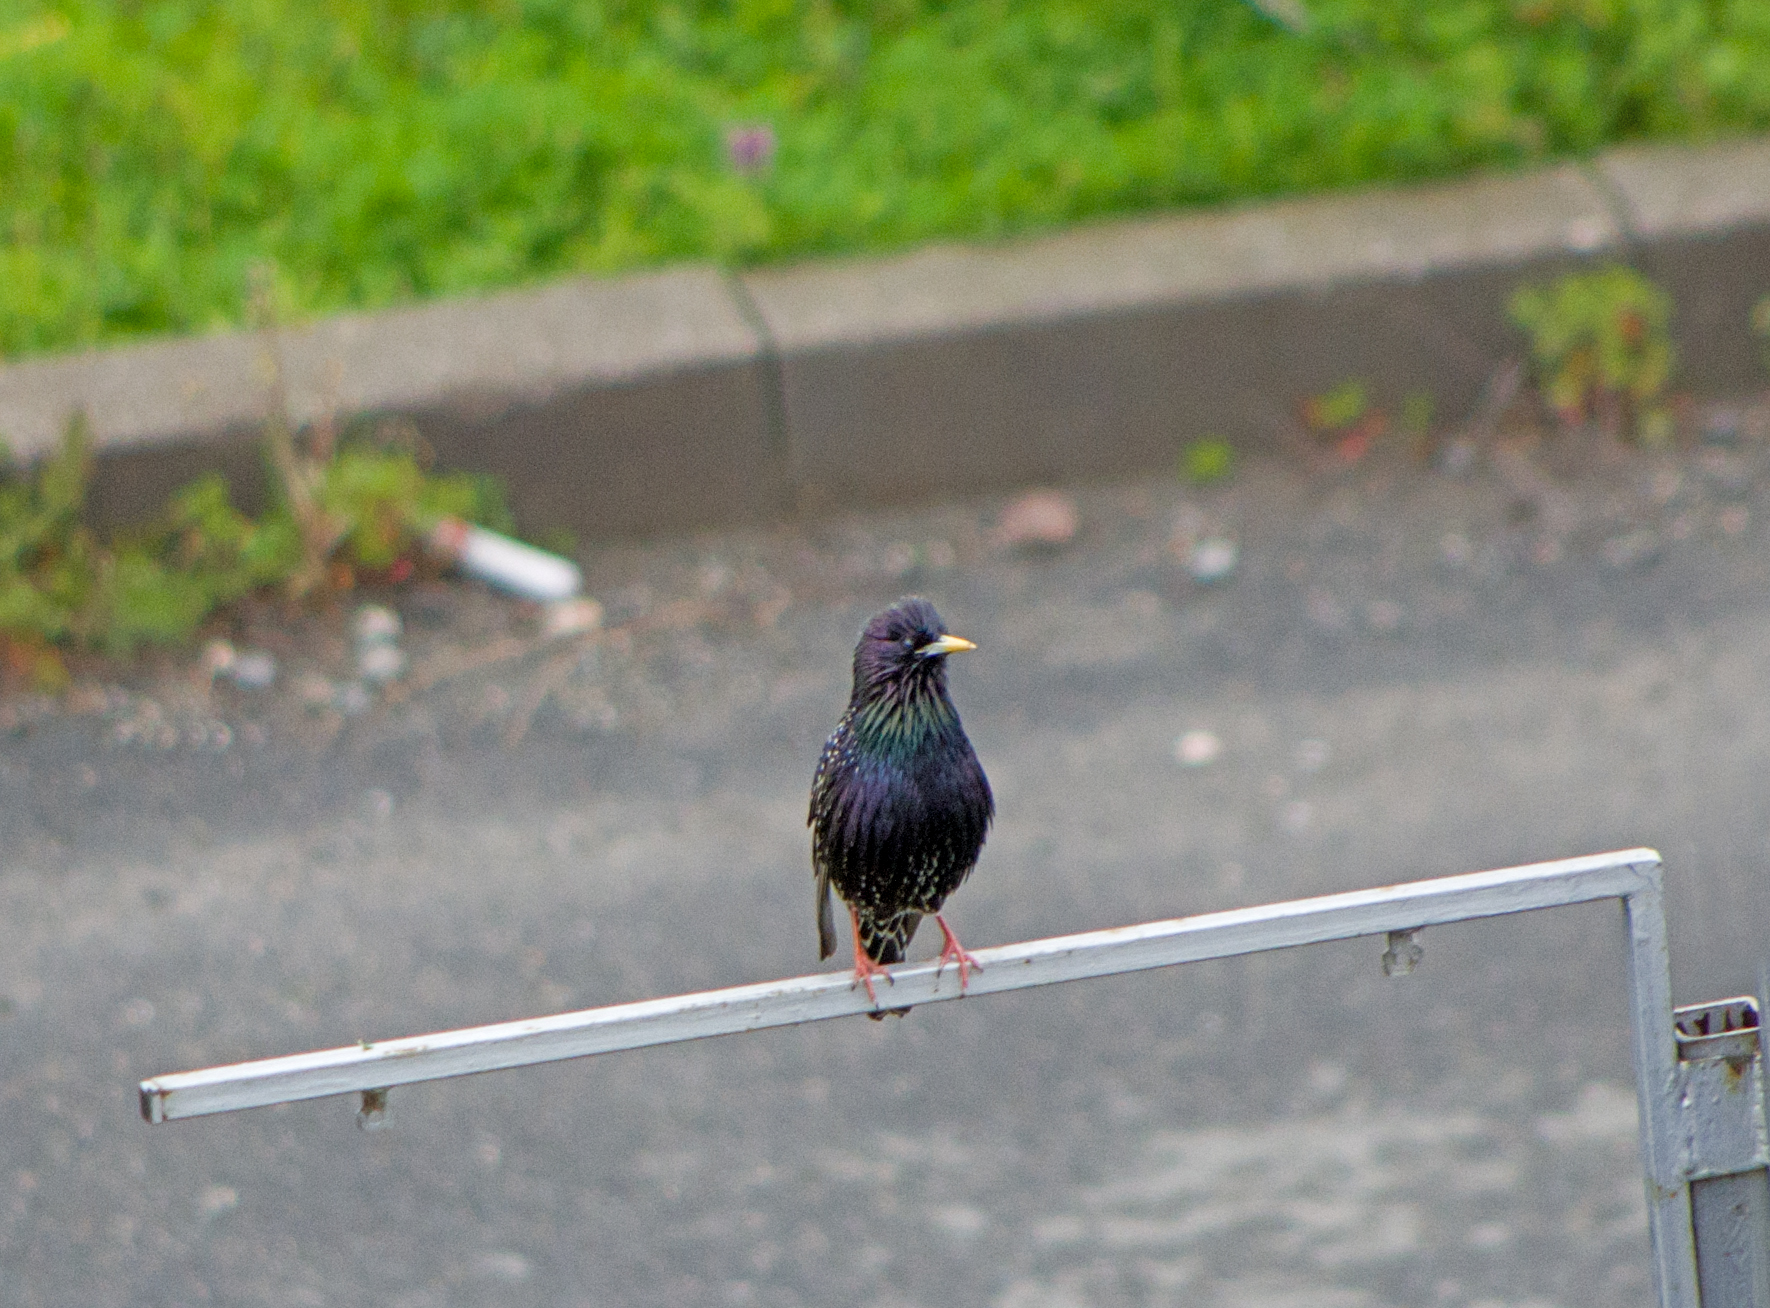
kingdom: Animalia
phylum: Chordata
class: Aves
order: Passeriformes
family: Sturnidae
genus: Sturnus
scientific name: Sturnus vulgaris
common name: Common starling
